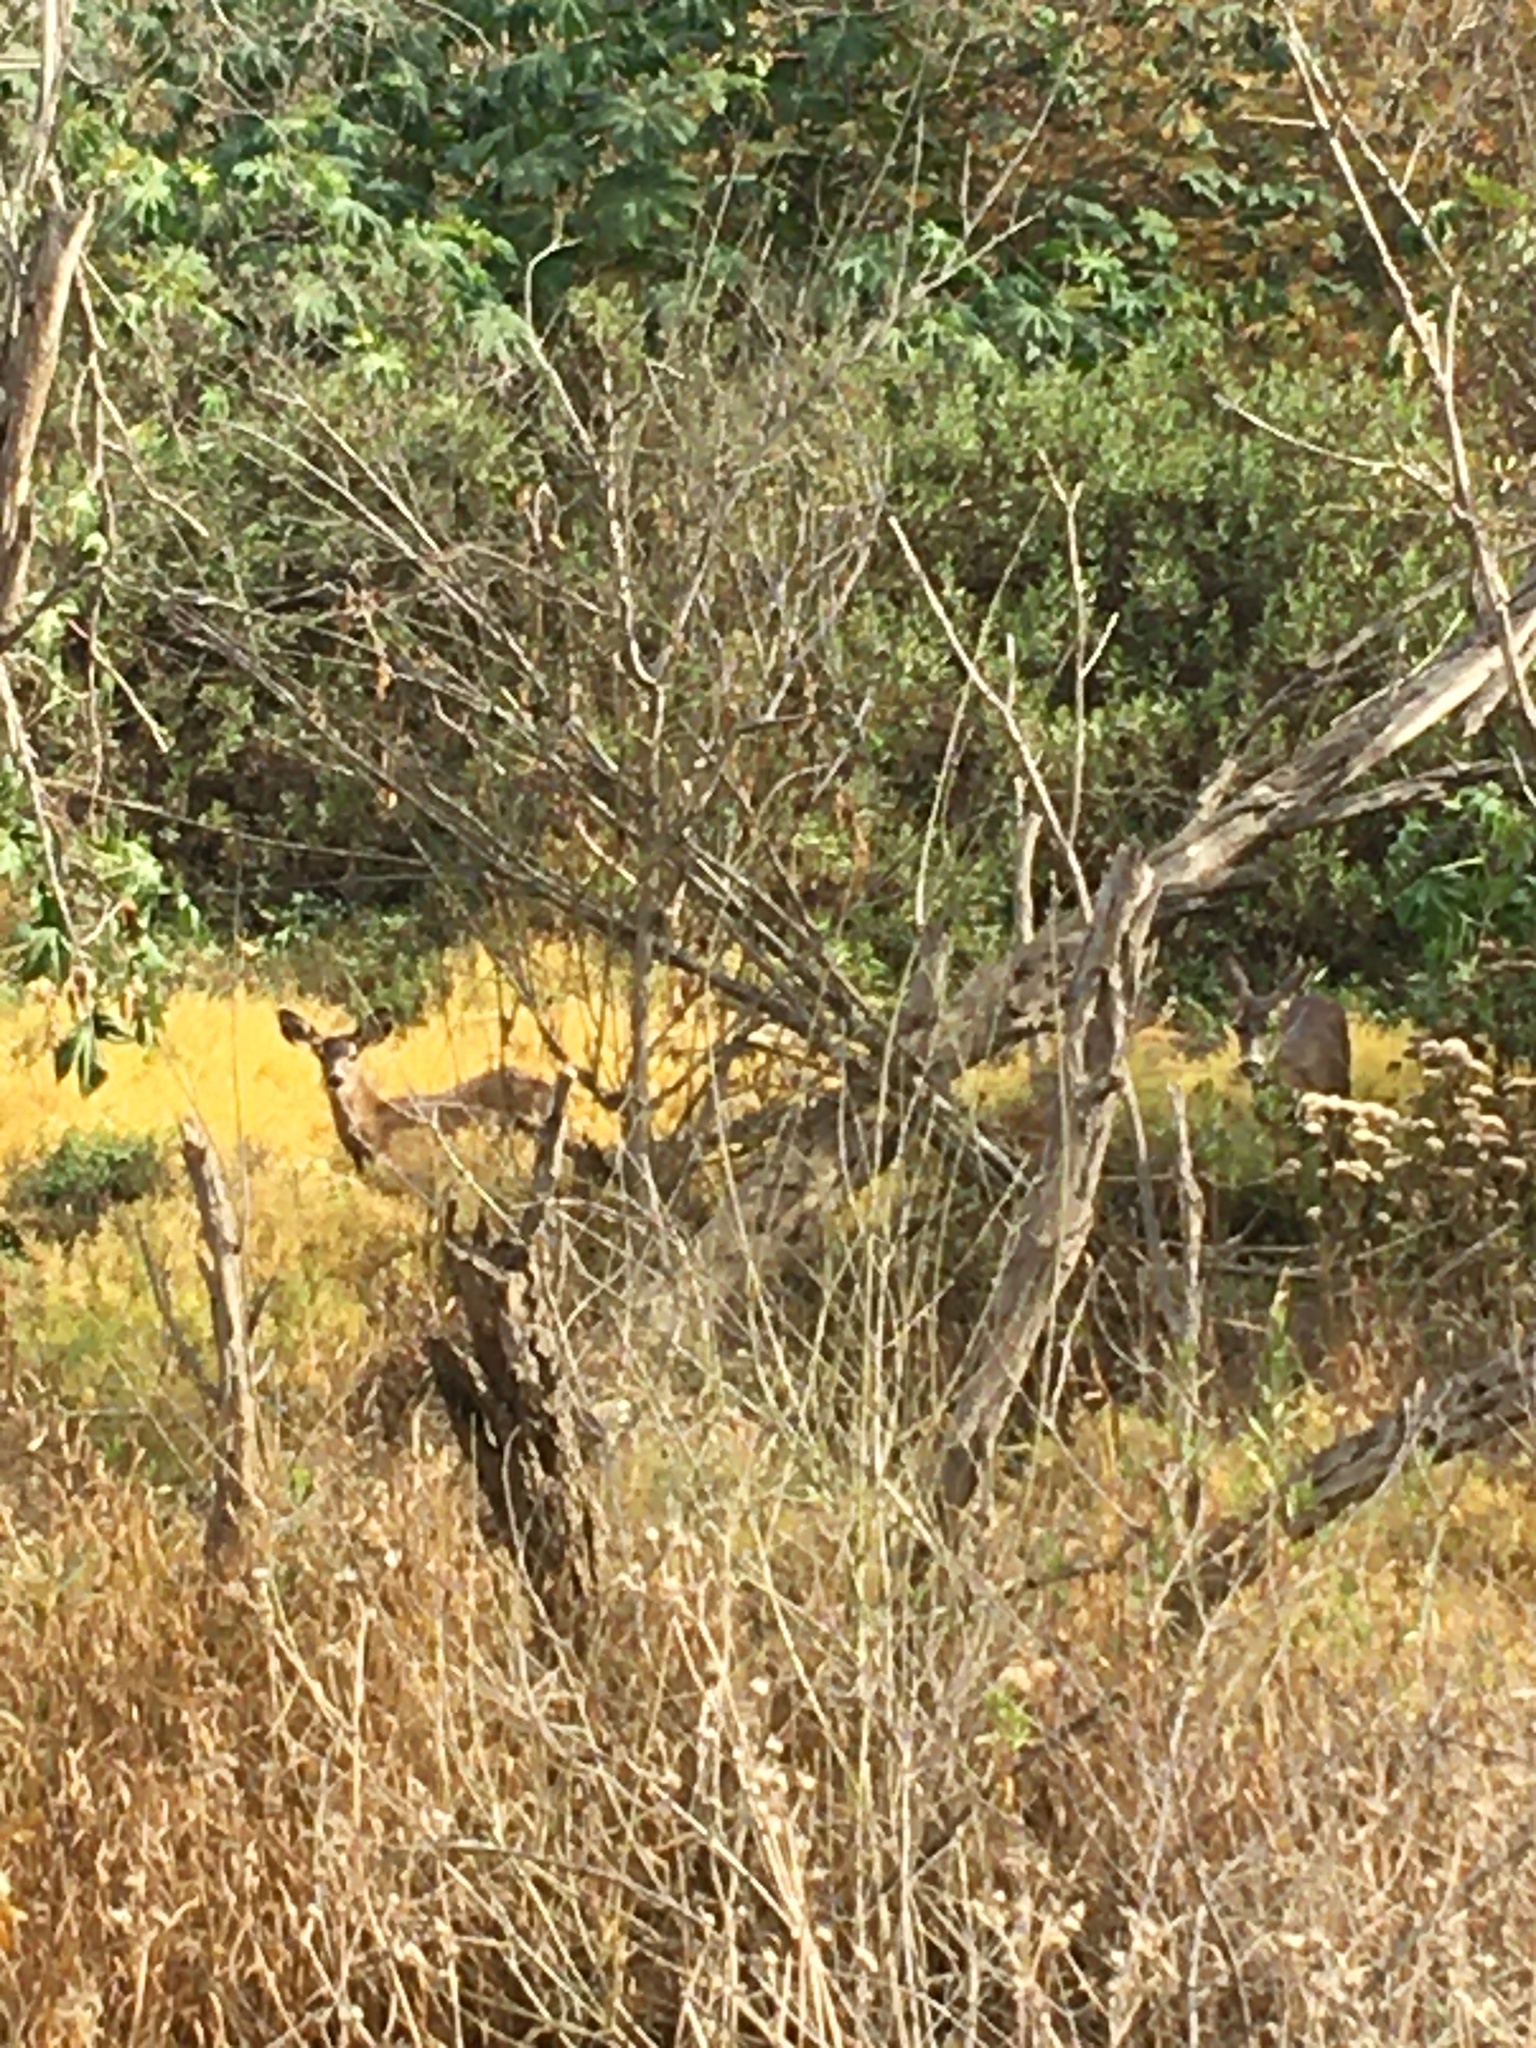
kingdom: Animalia
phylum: Chordata
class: Mammalia
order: Artiodactyla
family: Cervidae
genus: Odocoileus
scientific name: Odocoileus hemionus
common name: Mule deer
